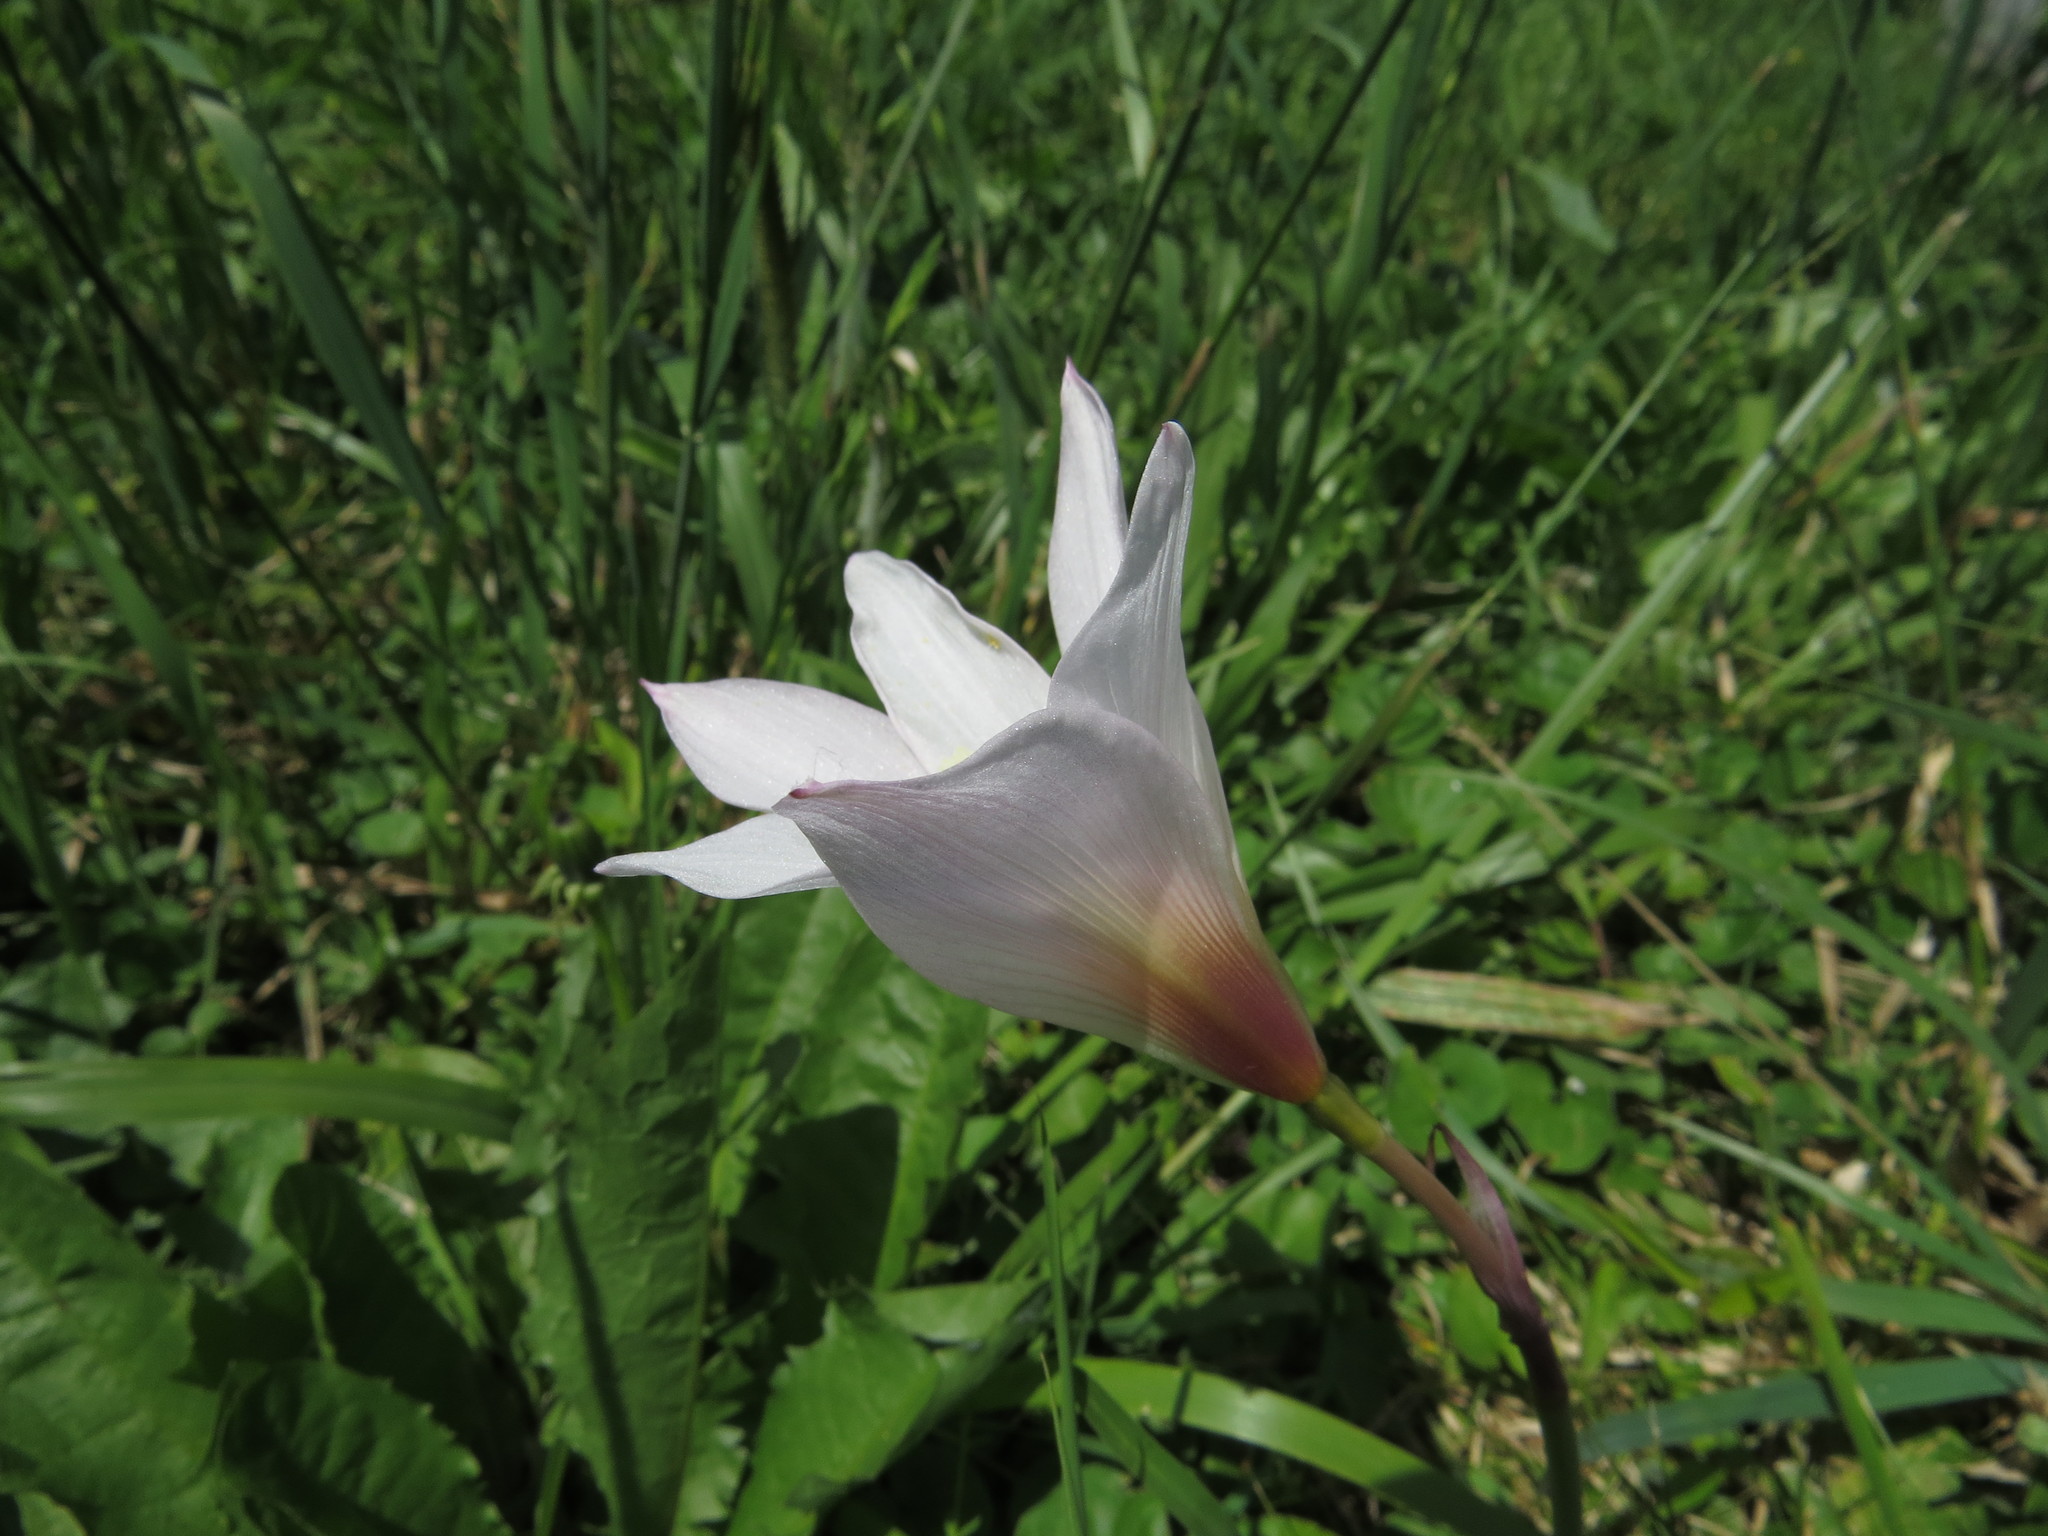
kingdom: Plantae
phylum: Tracheophyta
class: Liliopsida
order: Asparagales
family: Amaryllidaceae
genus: Zephyranthes
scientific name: Zephyranthes martinezii
